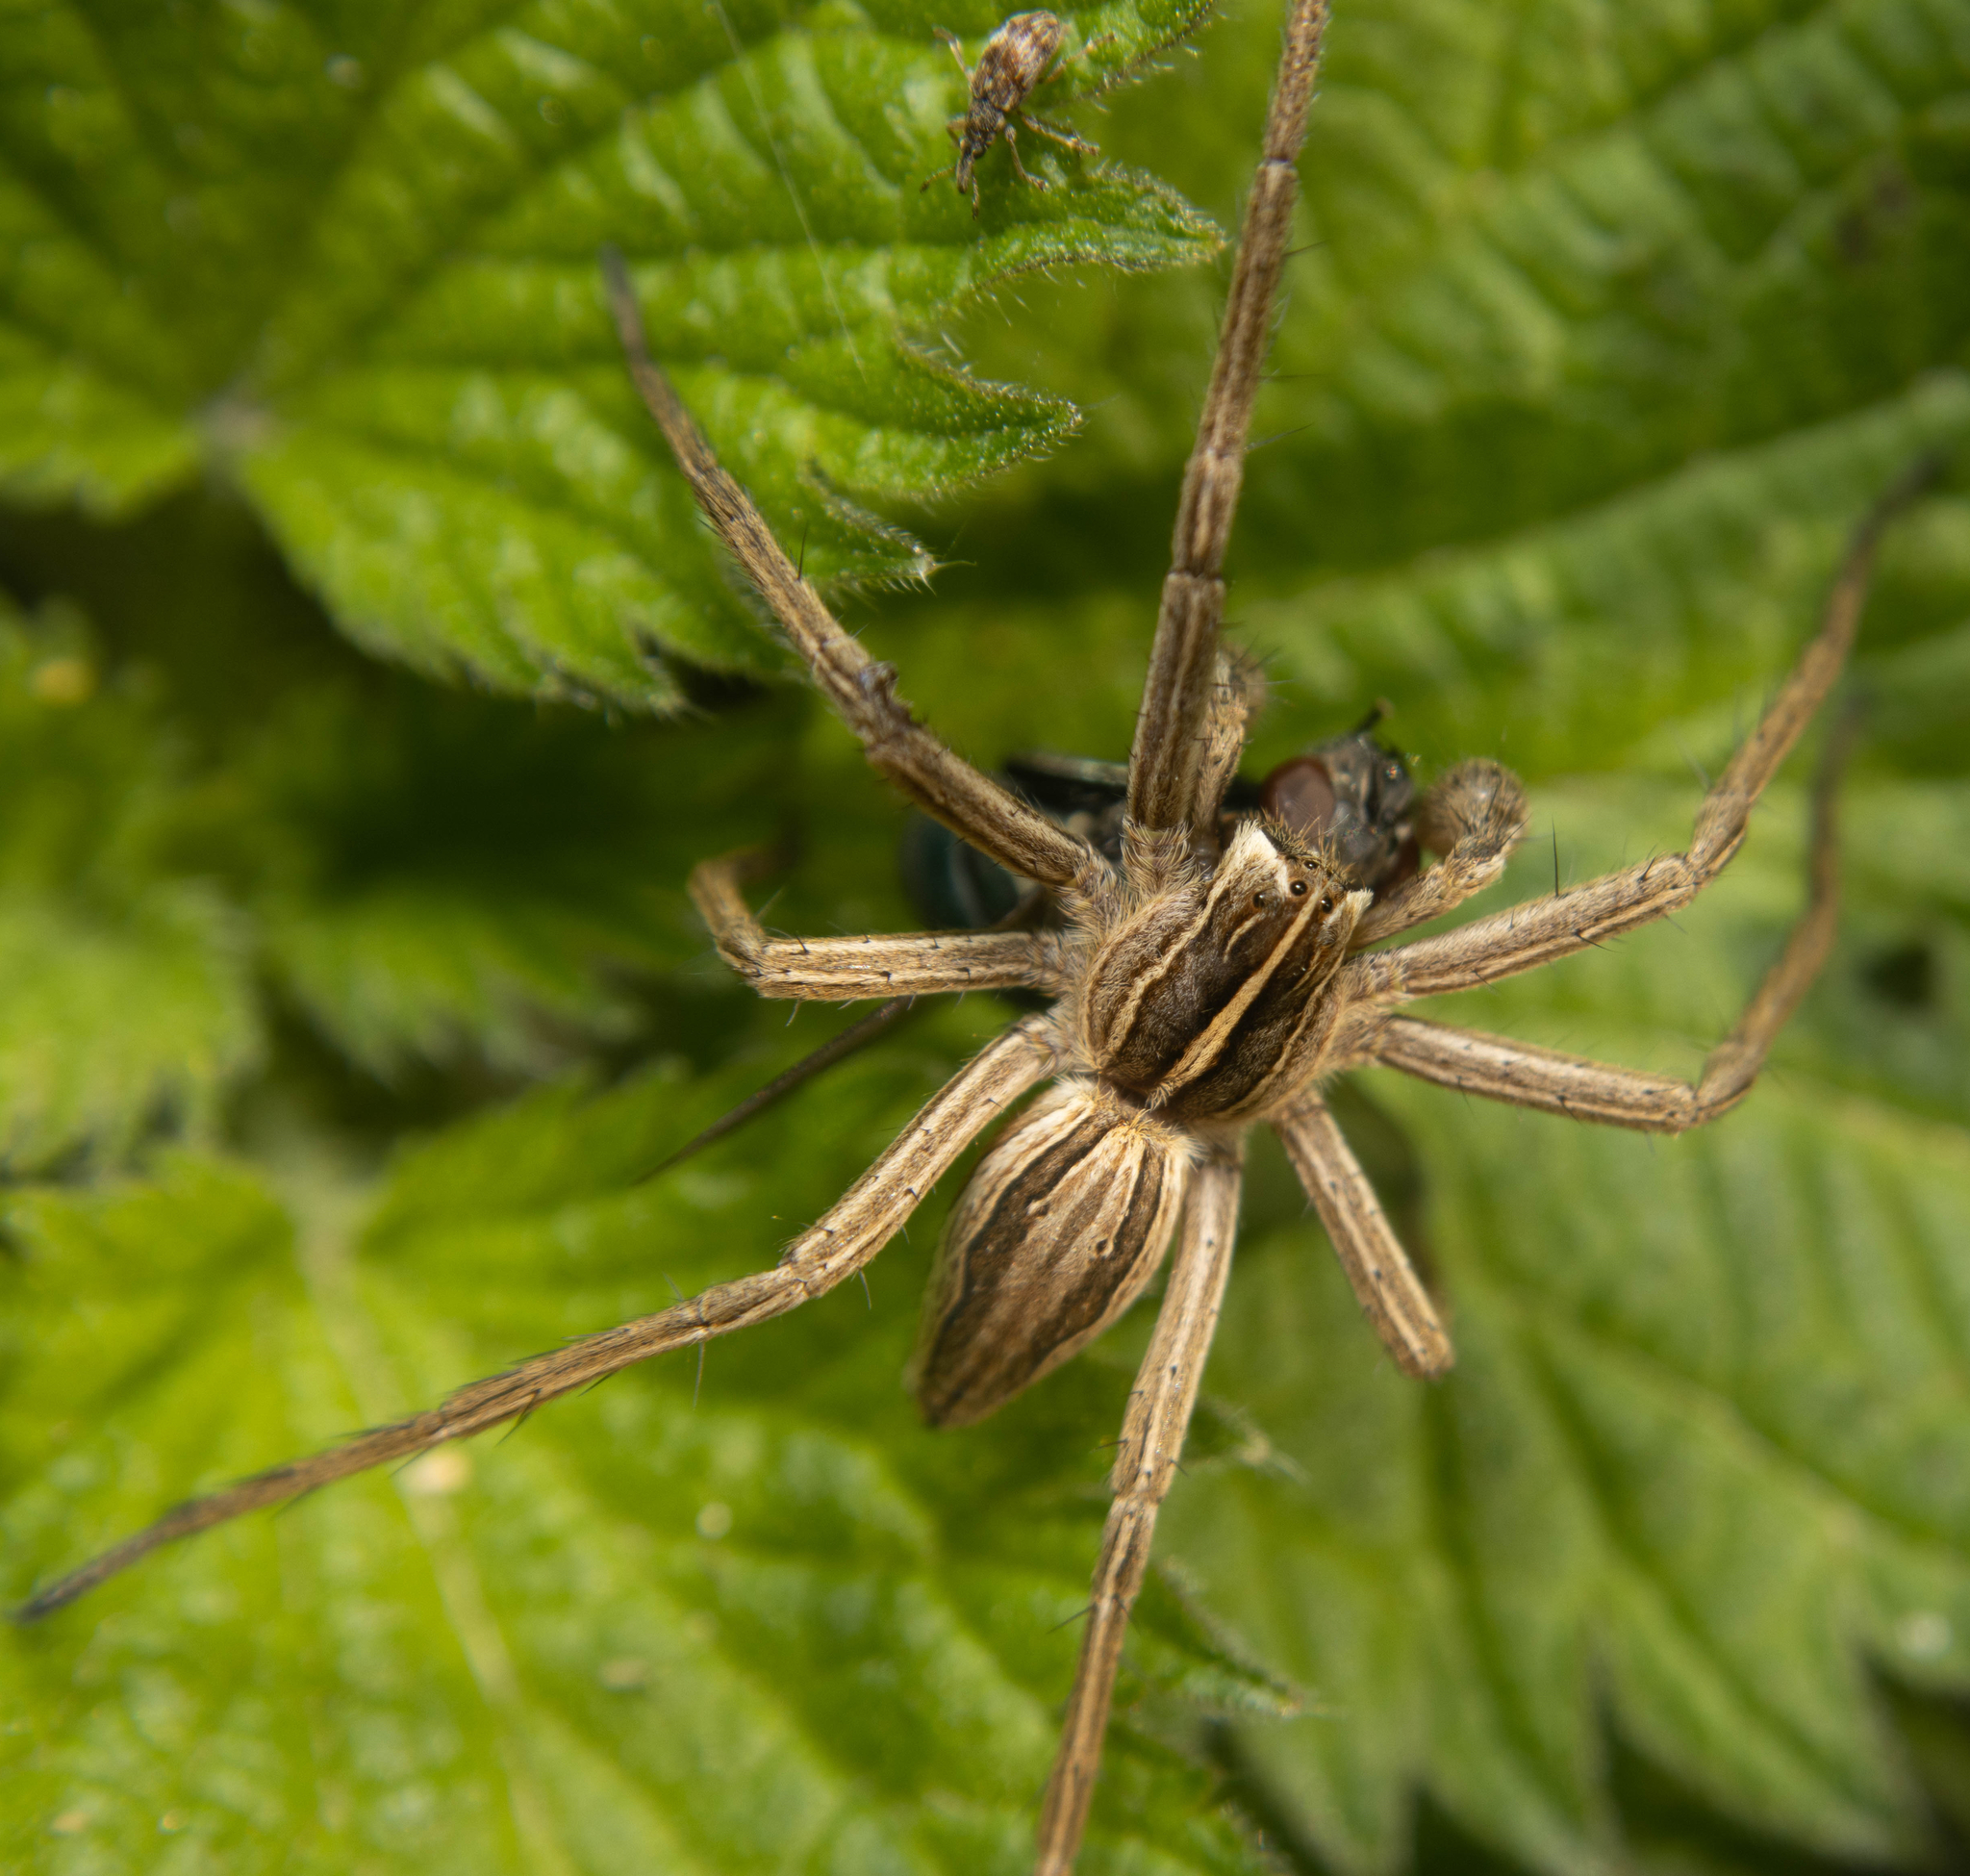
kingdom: Animalia
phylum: Arthropoda
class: Arachnida
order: Araneae
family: Pisauridae
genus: Pisaura
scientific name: Pisaura mirabilis
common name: Tent spider
